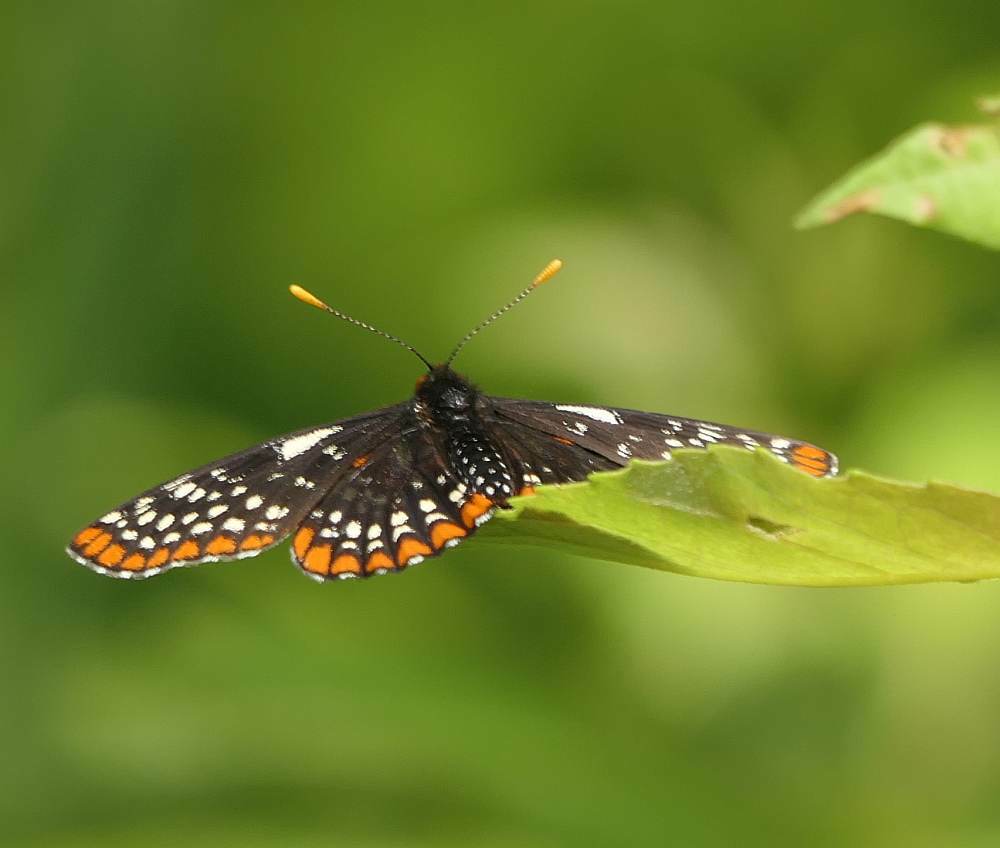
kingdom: Animalia
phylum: Arthropoda
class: Insecta
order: Lepidoptera
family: Nymphalidae
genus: Euphydryas
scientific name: Euphydryas phaeton
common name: Baltimore checkerspot
